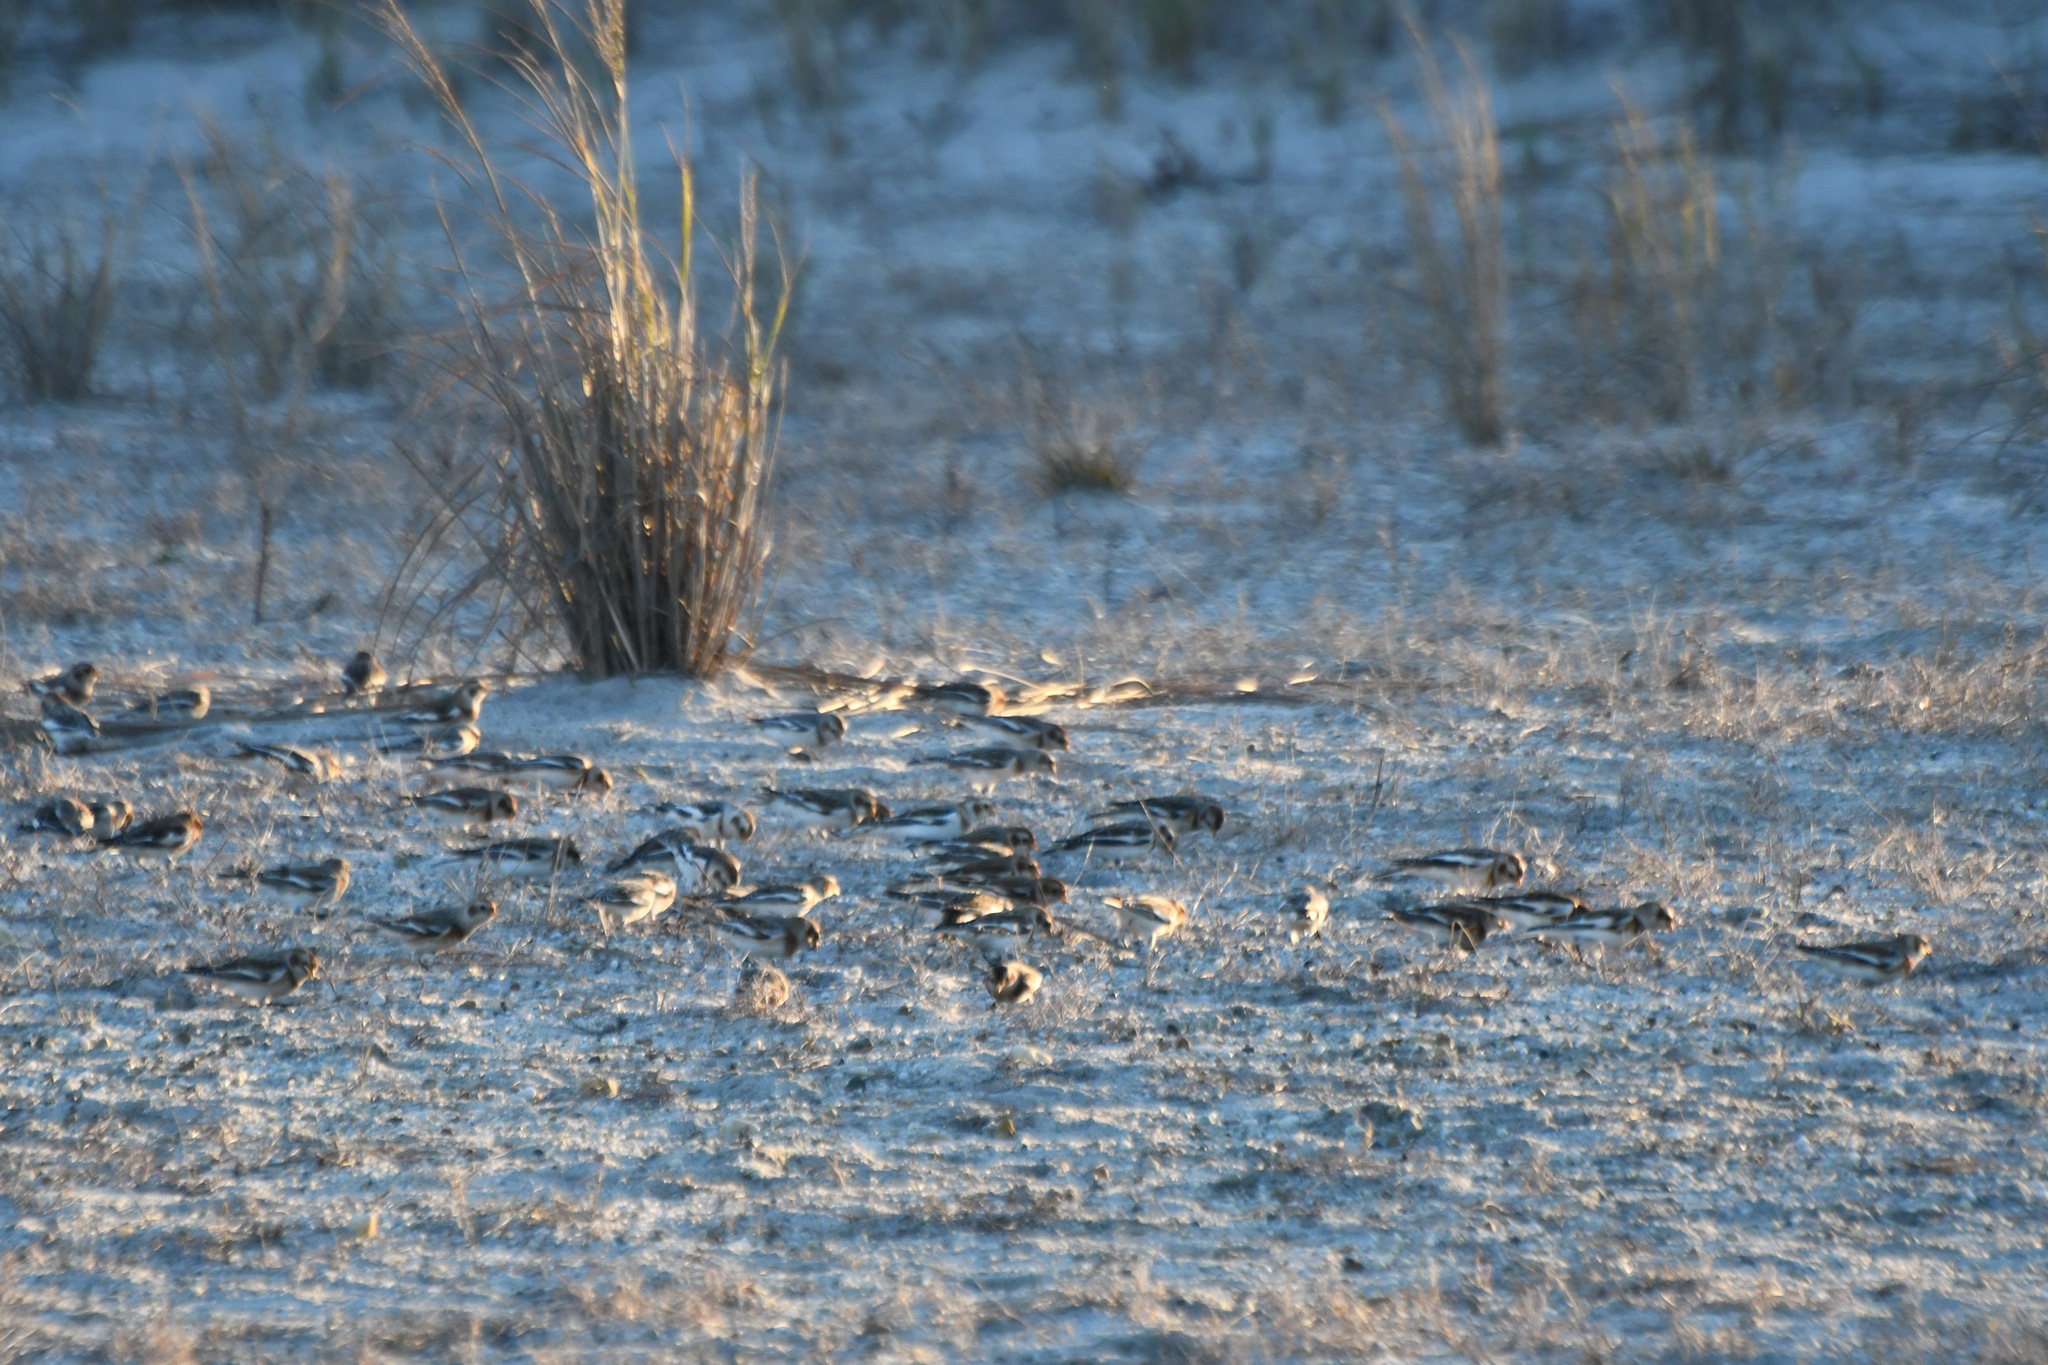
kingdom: Animalia
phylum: Chordata
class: Aves
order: Passeriformes
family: Calcariidae
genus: Plectrophenax
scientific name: Plectrophenax nivalis
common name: Snow bunting
